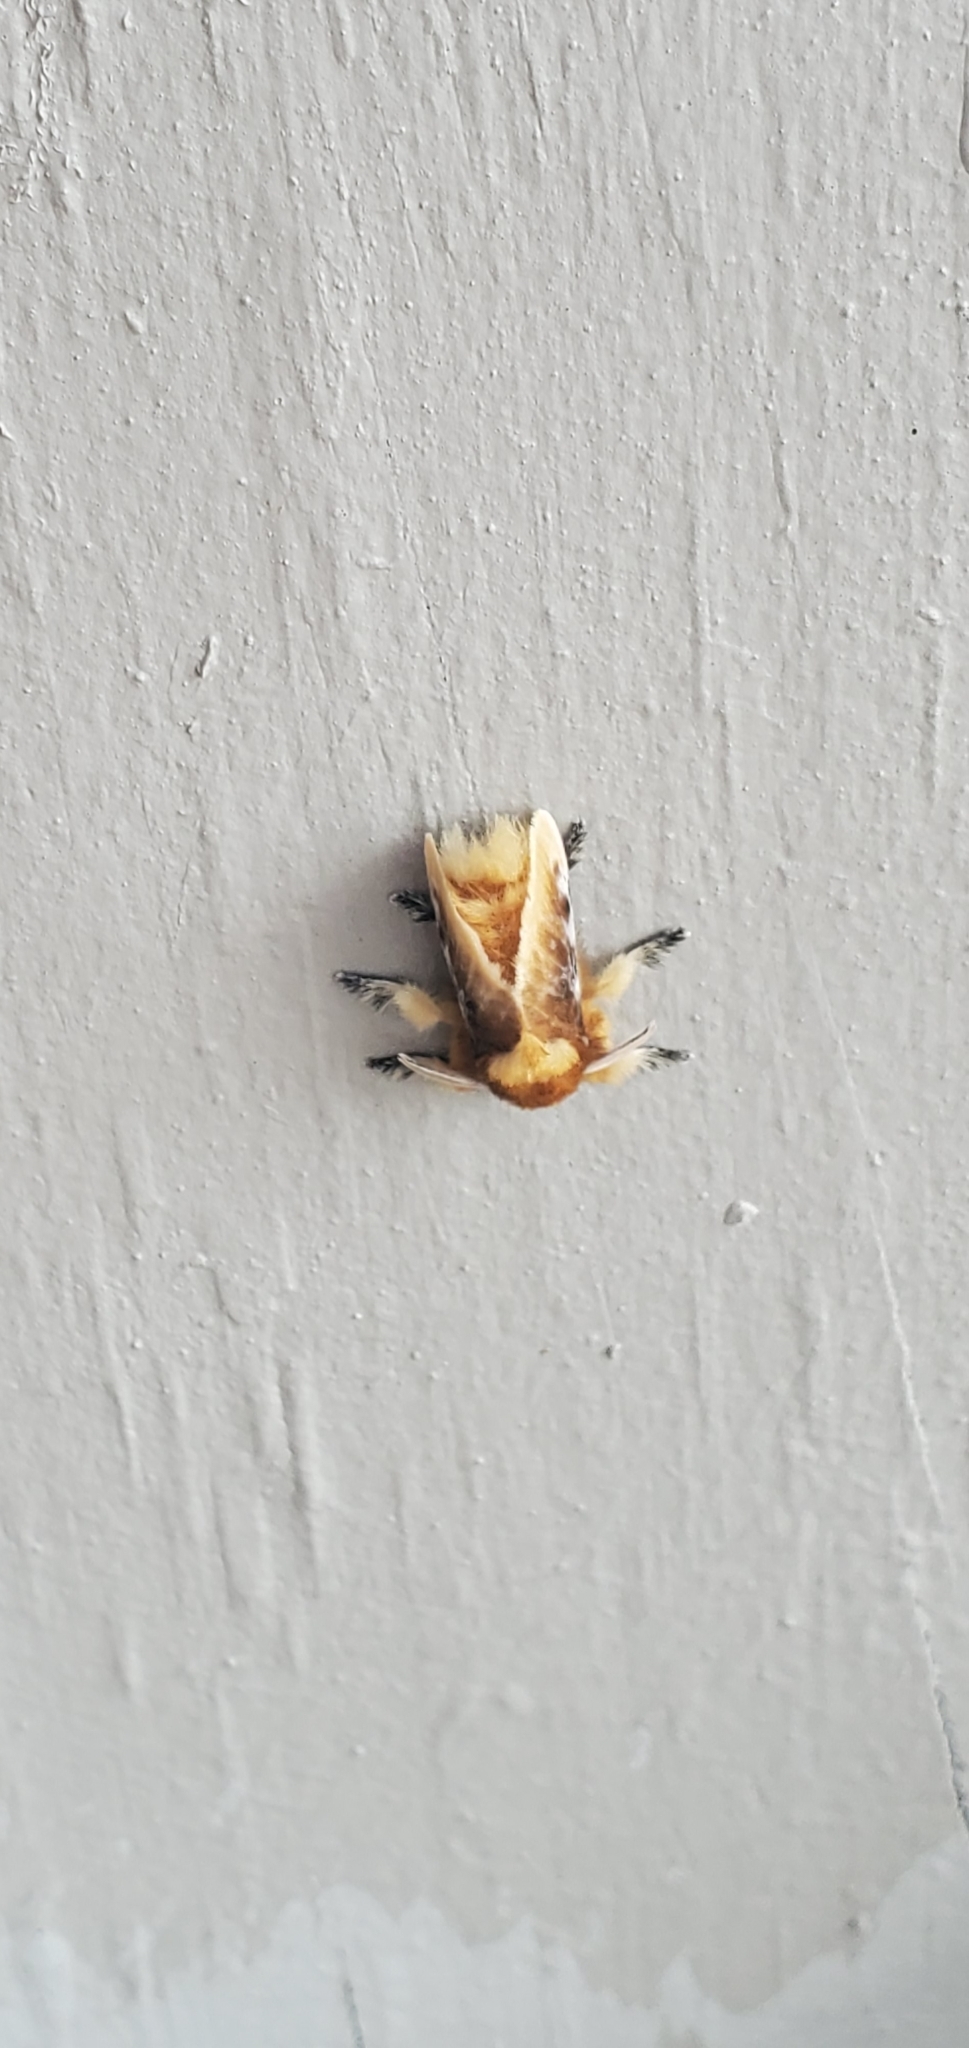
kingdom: Animalia
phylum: Arthropoda
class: Insecta
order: Lepidoptera
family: Megalopygidae
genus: Megalopyge
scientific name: Megalopyge opercularis
